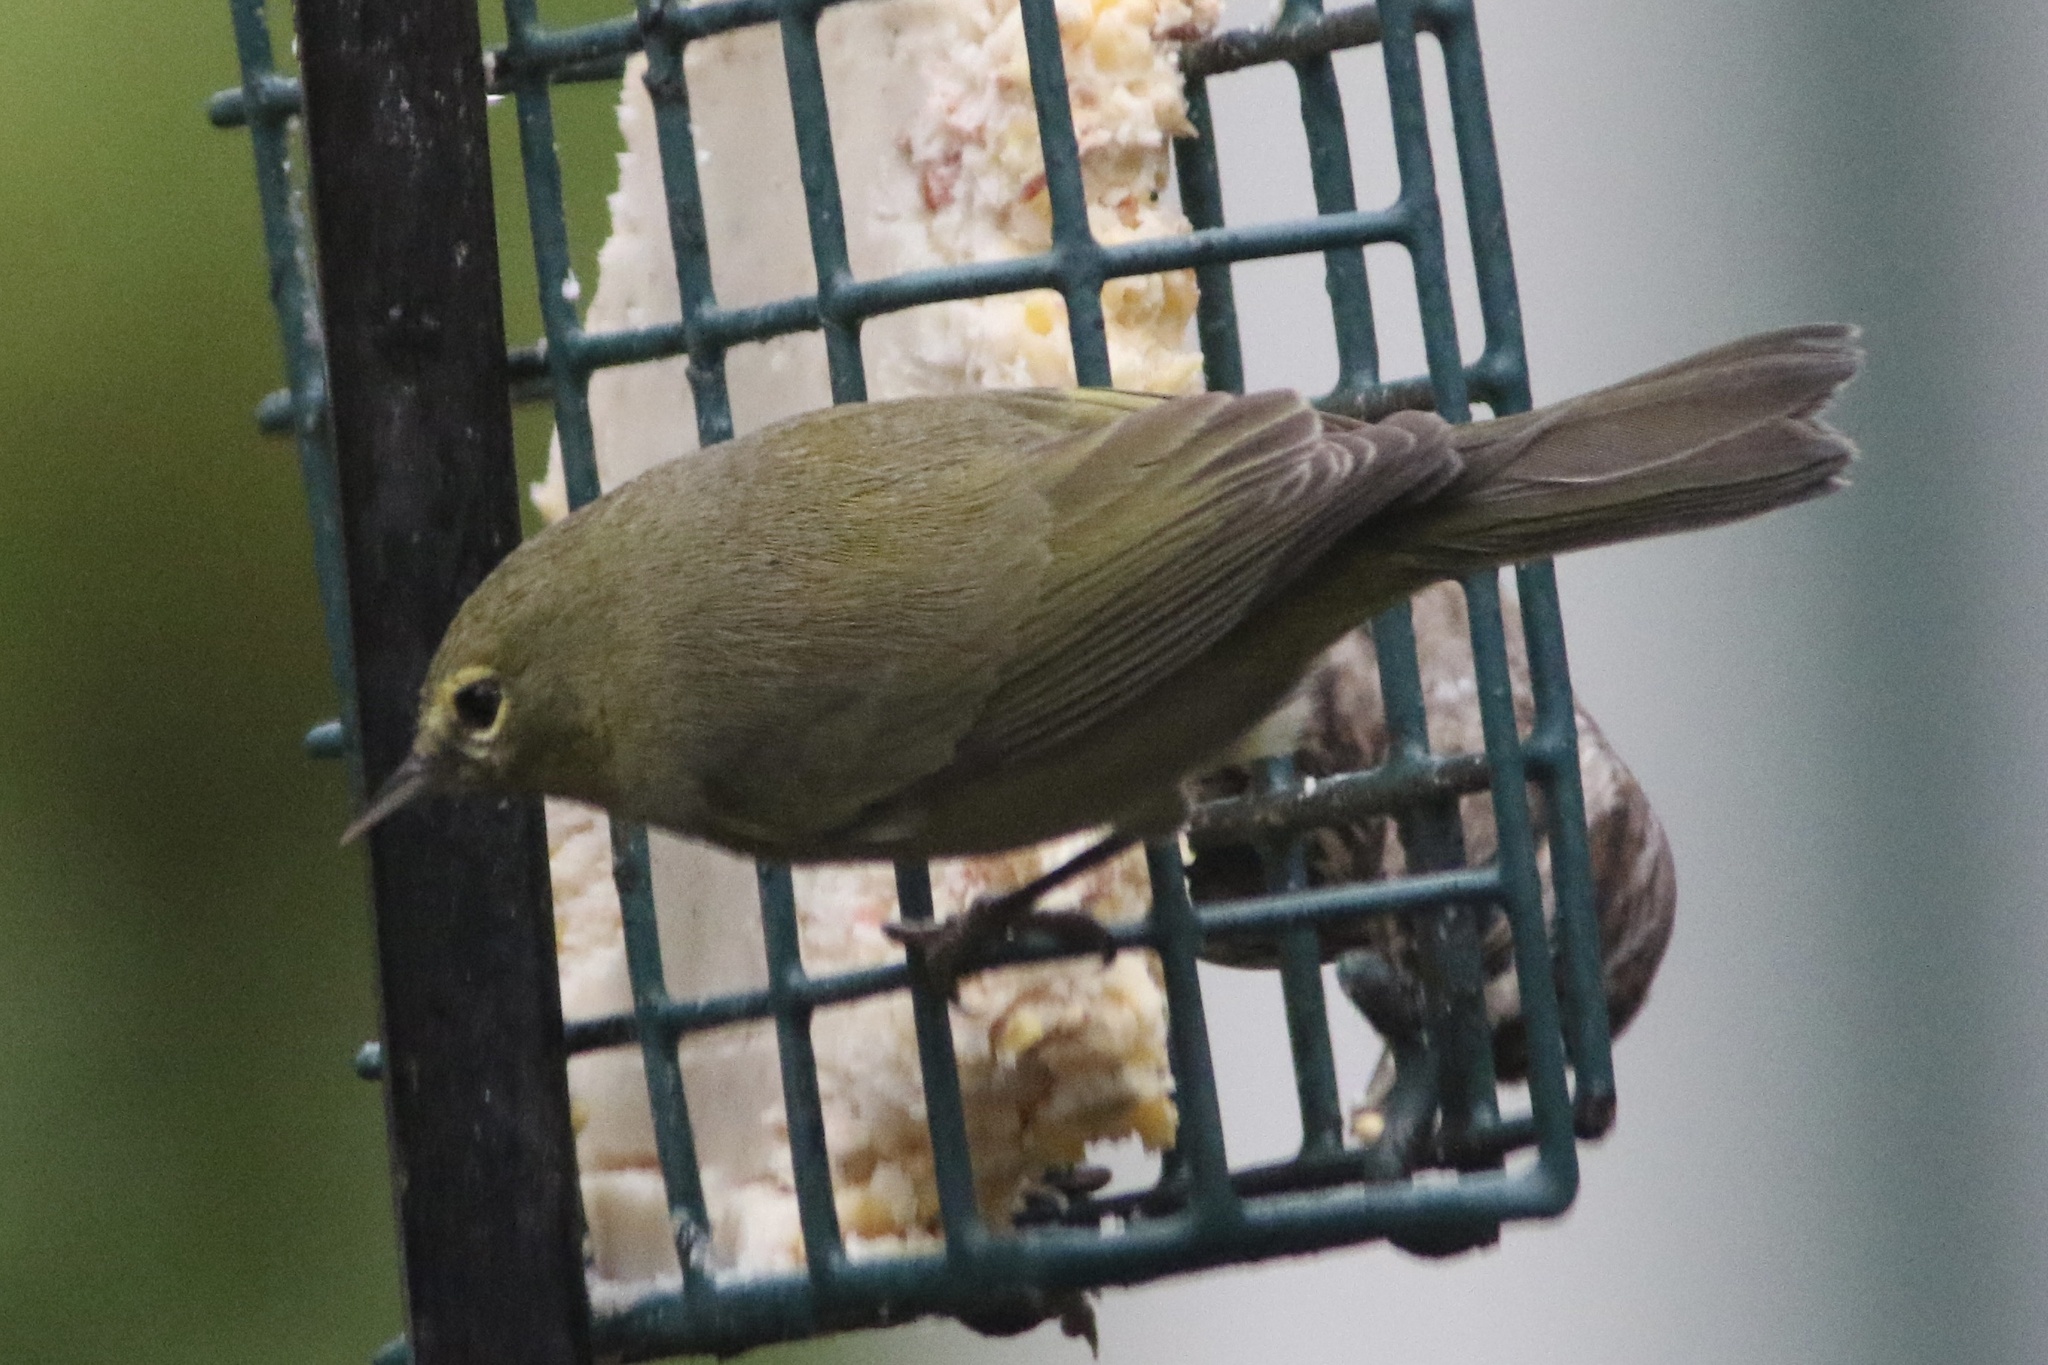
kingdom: Animalia
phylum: Chordata
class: Aves
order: Passeriformes
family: Parulidae
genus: Leiothlypis
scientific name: Leiothlypis celata
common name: Orange-crowned warbler
